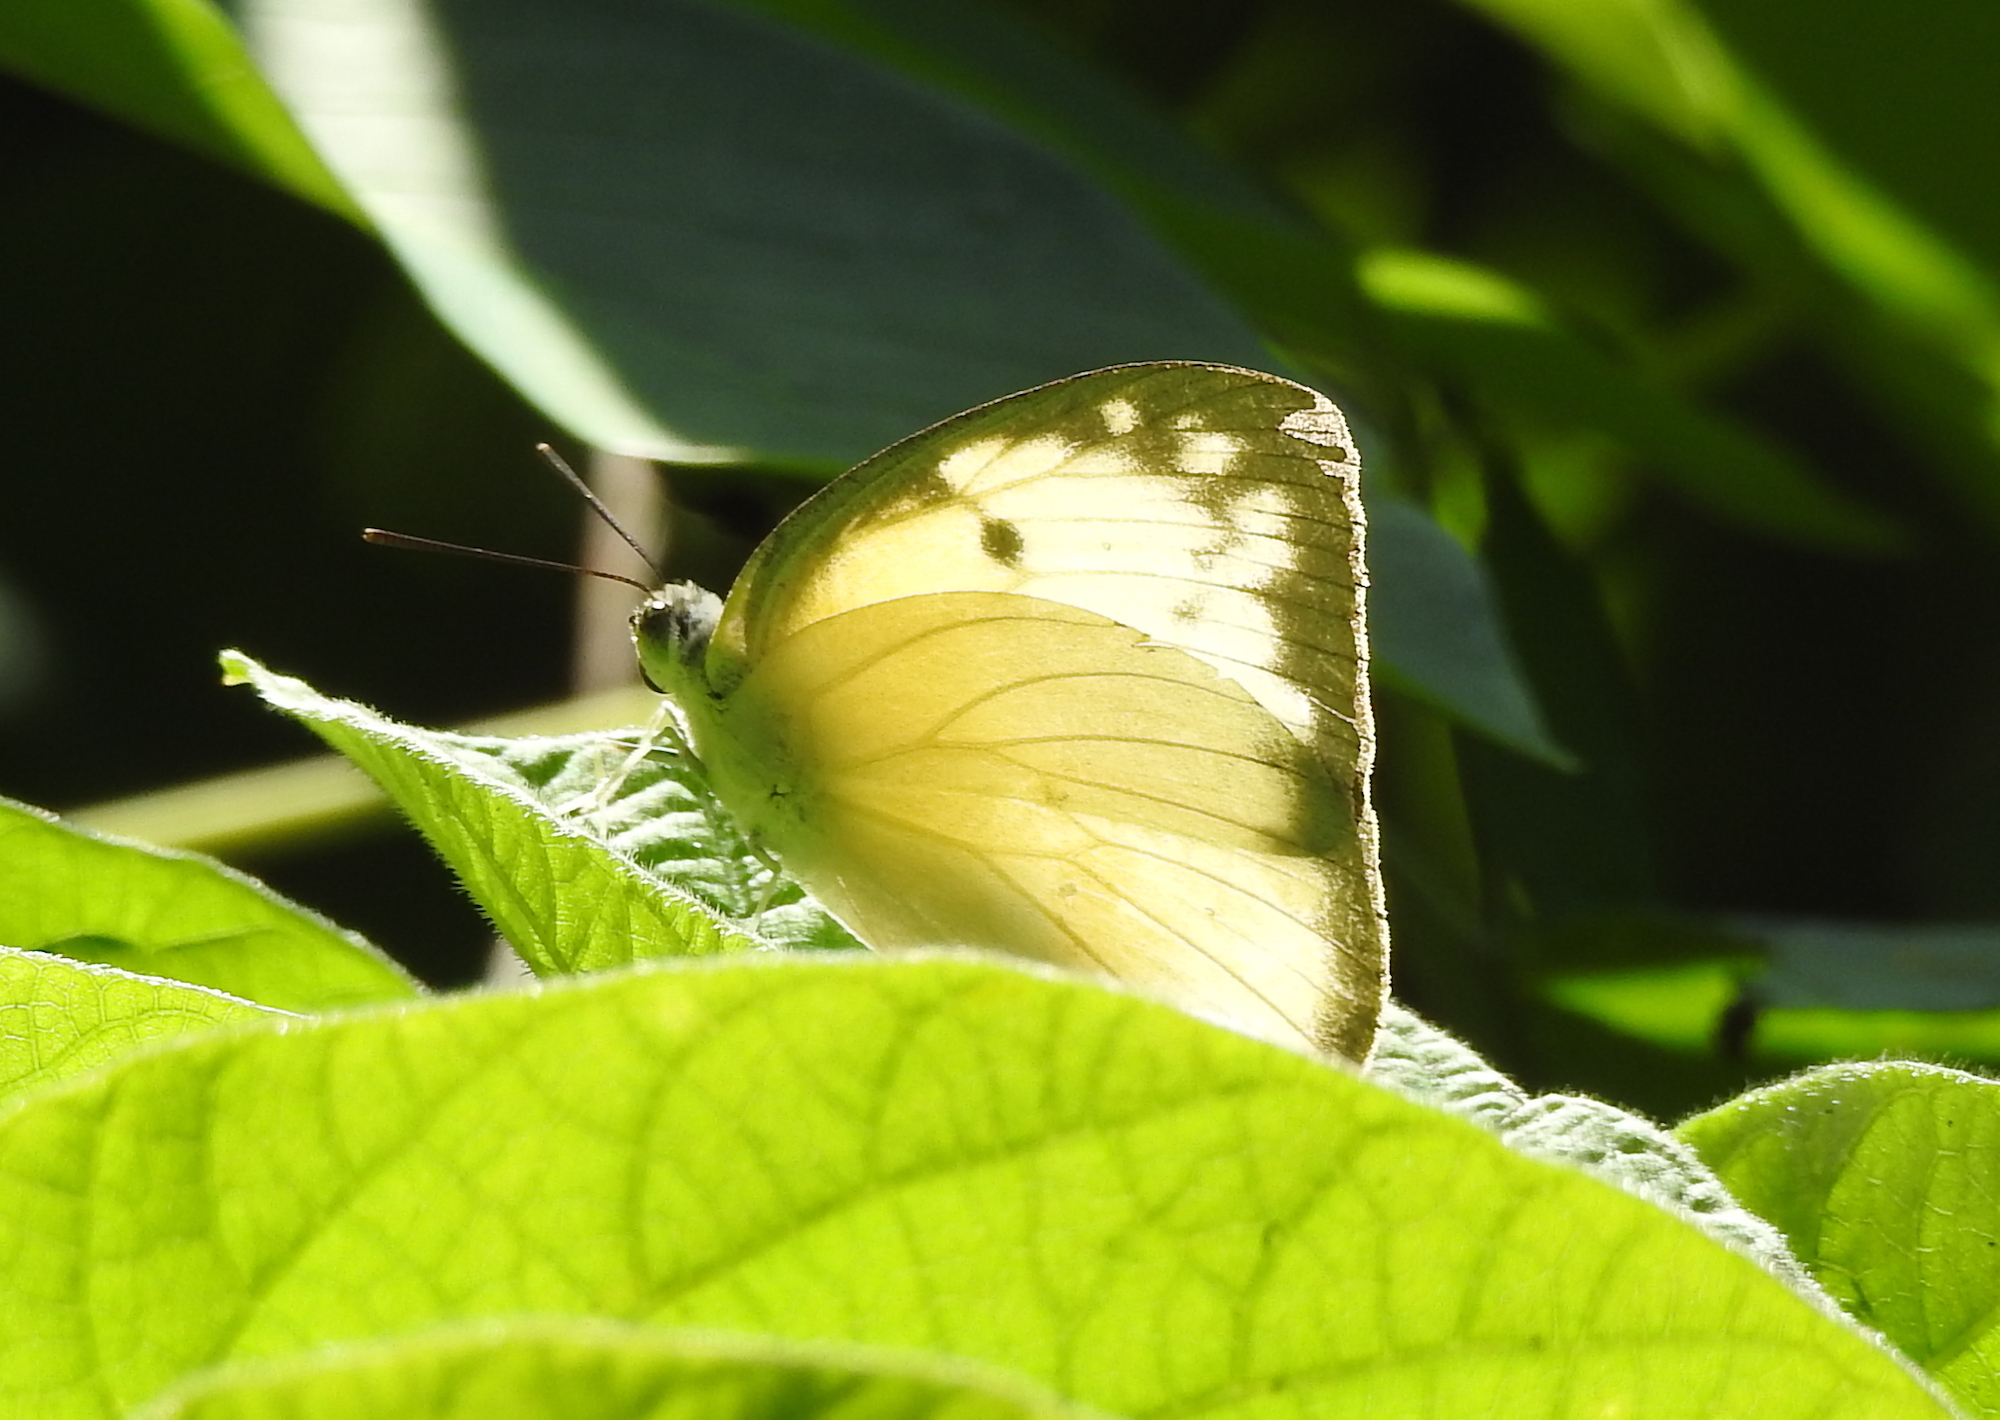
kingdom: Animalia
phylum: Arthropoda
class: Insecta
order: Lepidoptera
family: Pieridae
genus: Catopsilia
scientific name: Catopsilia pomona
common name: Common emigrant
